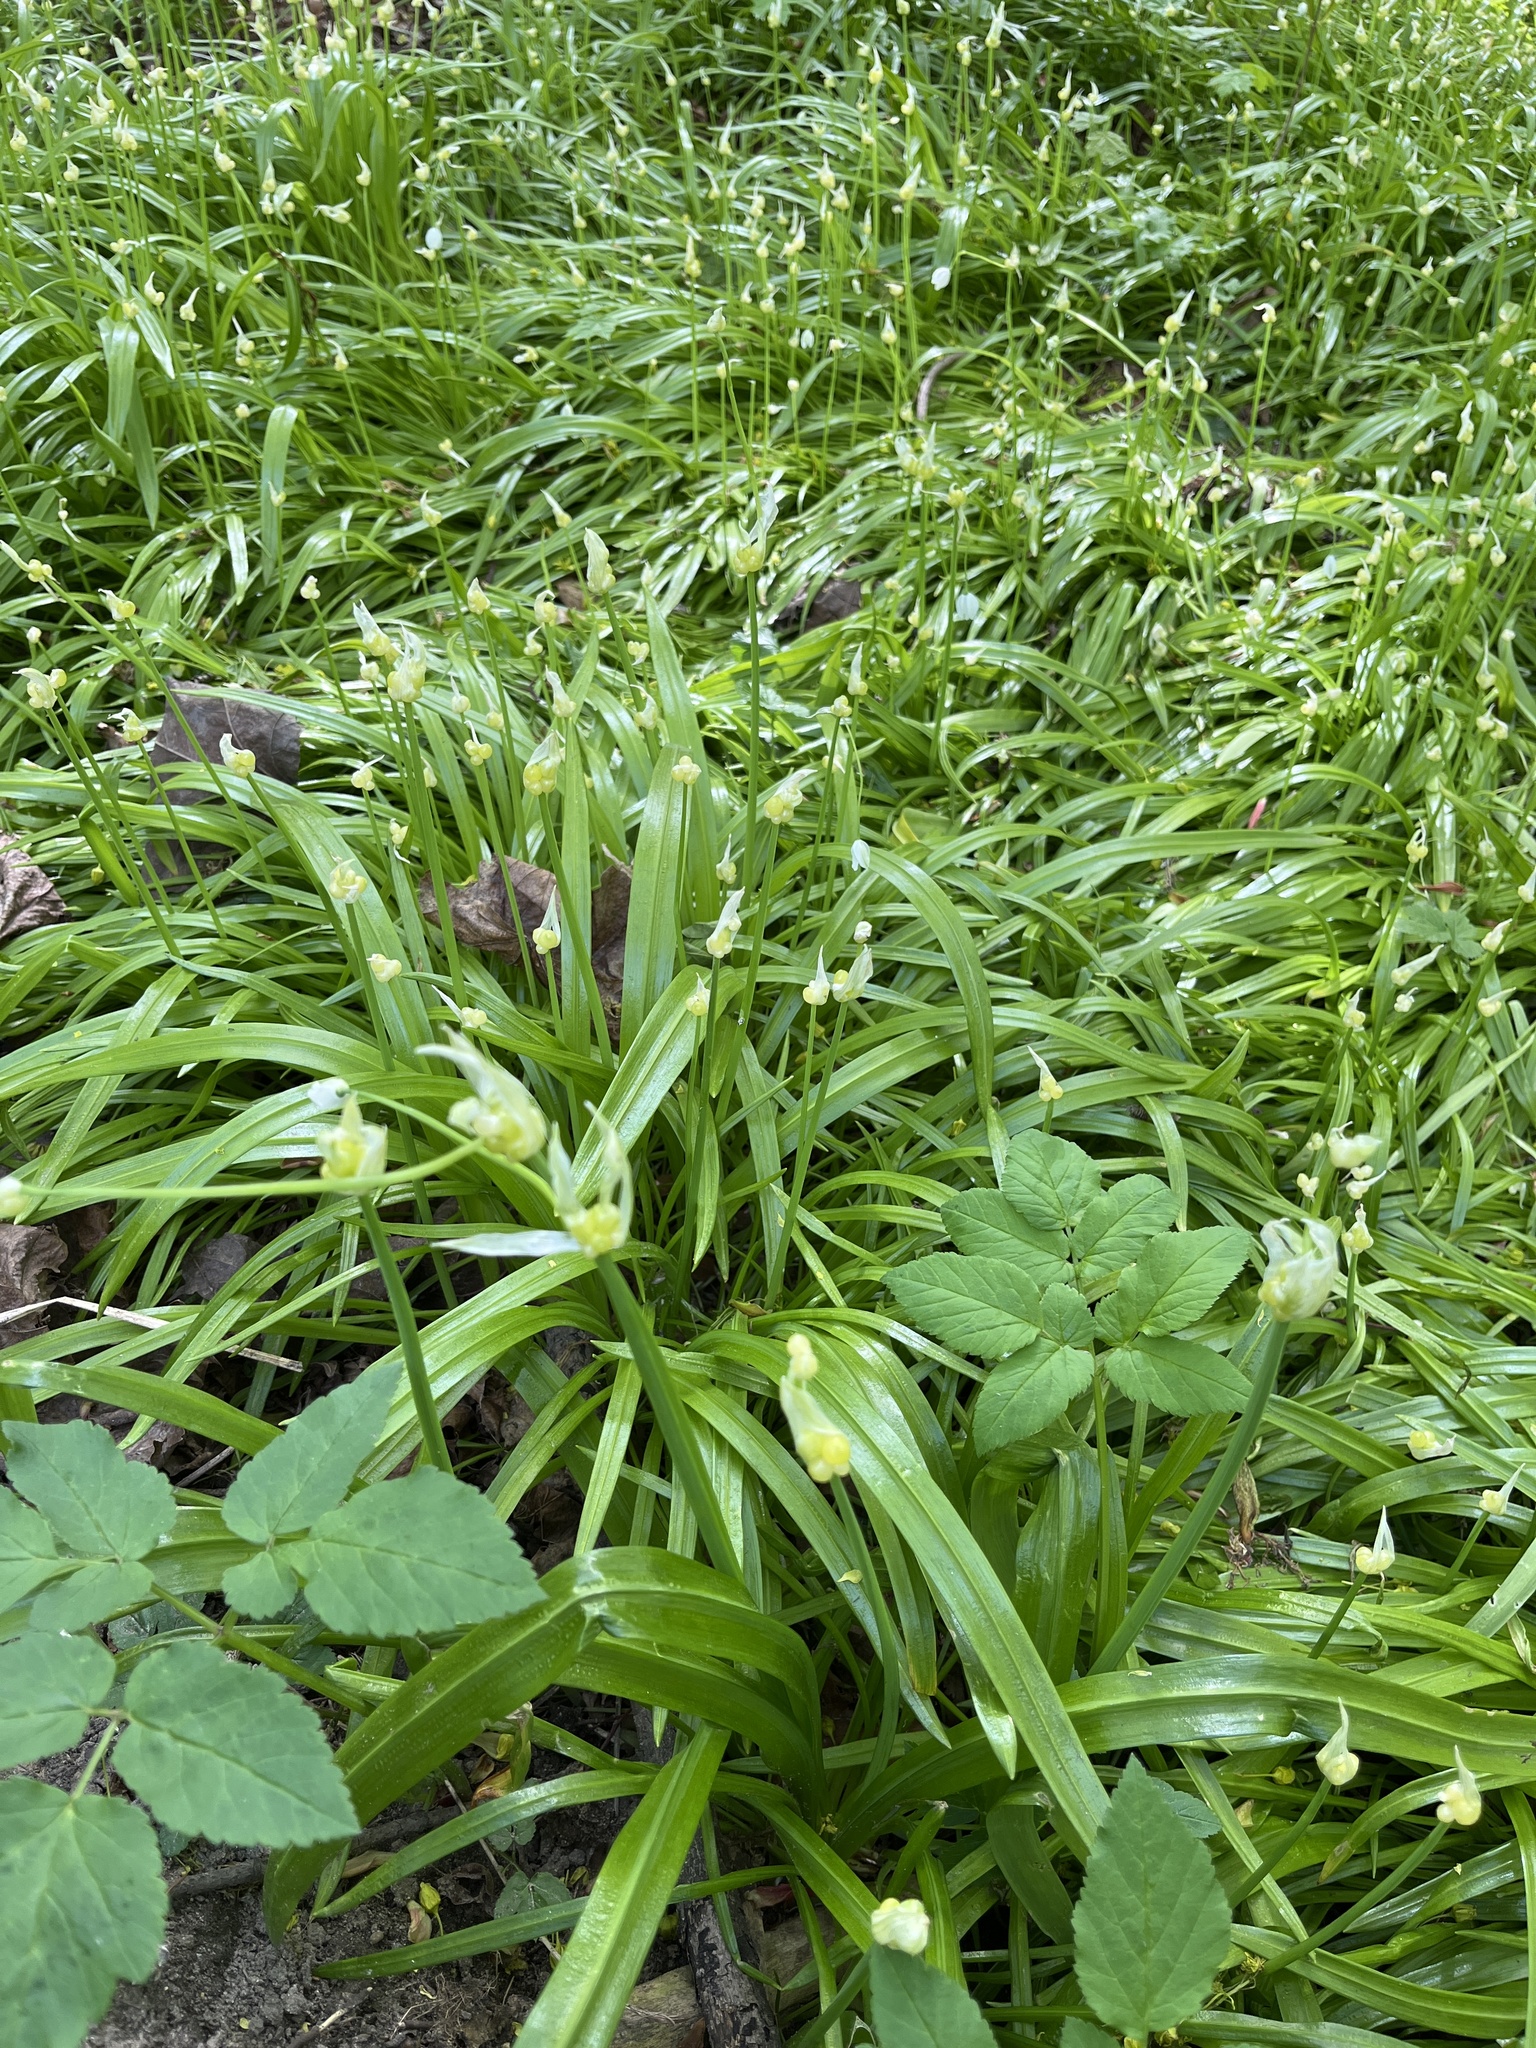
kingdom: Plantae
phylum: Tracheophyta
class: Liliopsida
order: Asparagales
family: Amaryllidaceae
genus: Allium
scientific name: Allium paradoxum
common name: Few-flowered garlic
